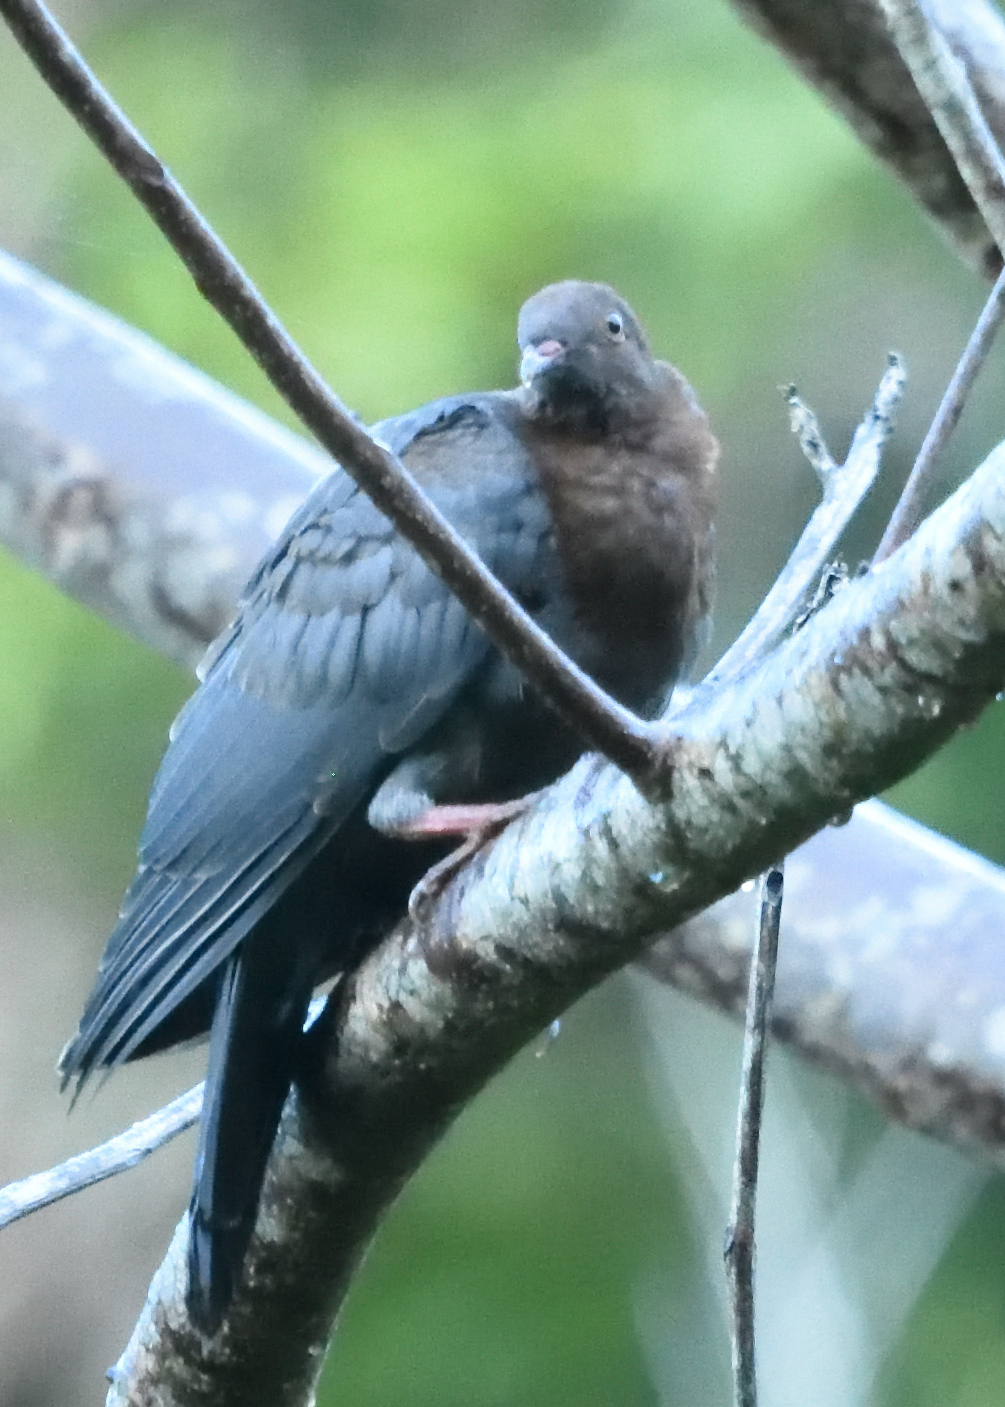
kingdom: Animalia
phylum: Chordata
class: Aves
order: Columbiformes
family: Columbidae
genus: Patagioenas
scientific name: Patagioenas squamosa
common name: Scaly-naped pigeon
